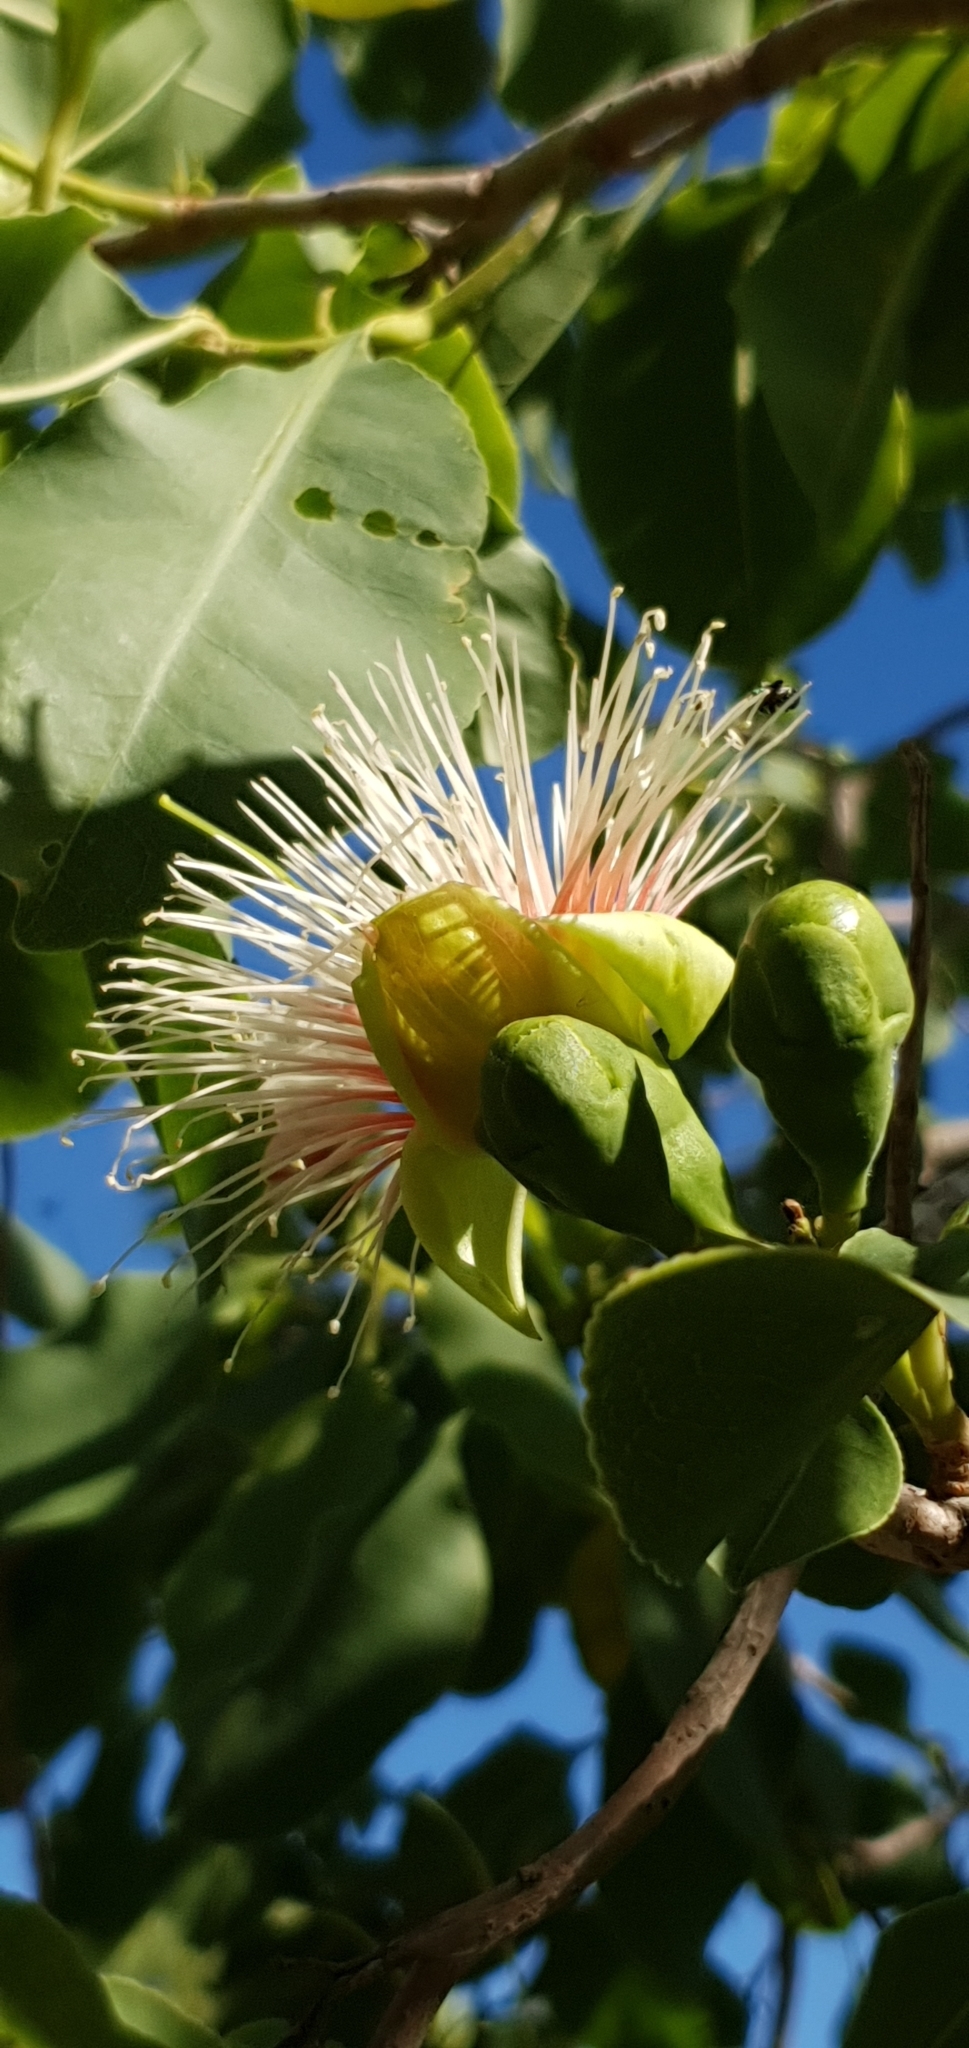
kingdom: Plantae
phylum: Tracheophyta
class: Magnoliopsida
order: Ericales
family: Lecythidaceae
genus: Planchonia
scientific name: Planchonia careya
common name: Cockatoo-apple
